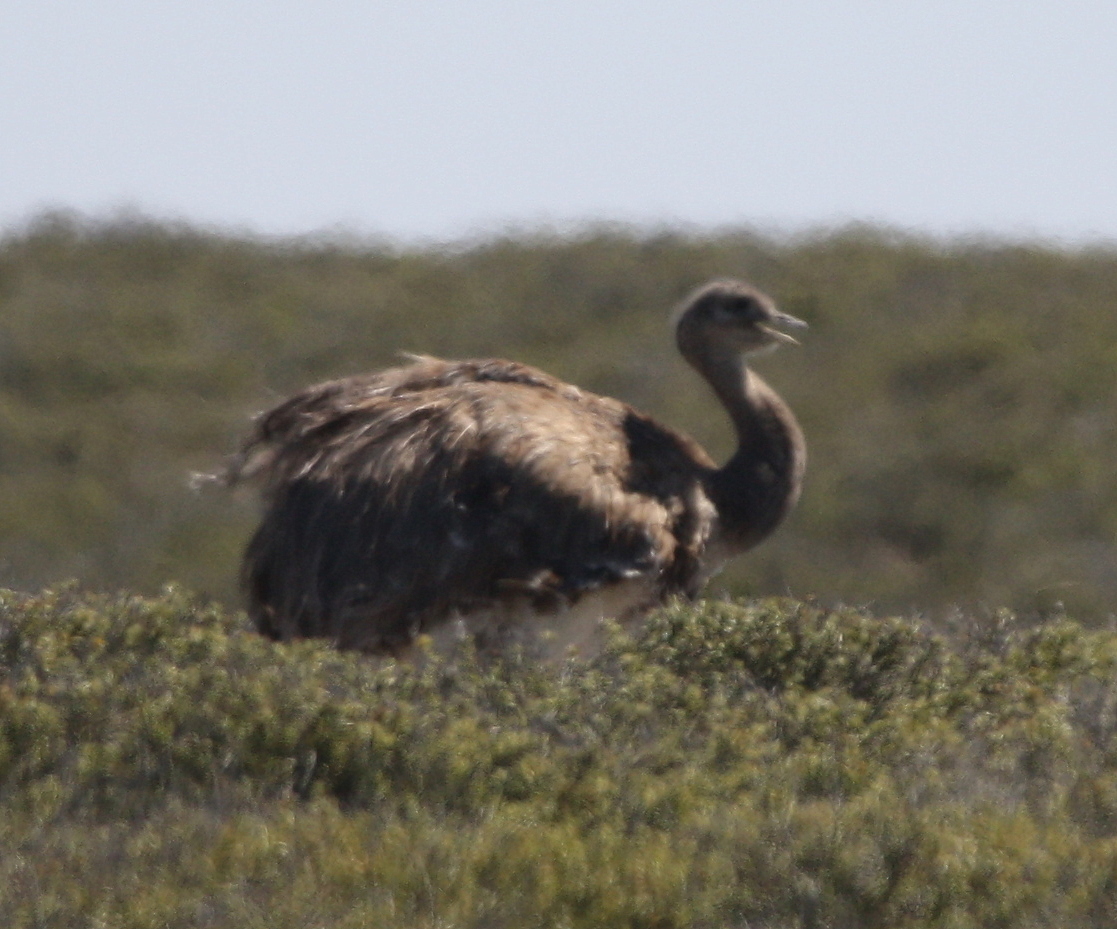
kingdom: Animalia
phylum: Chordata
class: Aves
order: Rheiformes
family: Rheidae
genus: Rhea
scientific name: Rhea pennata
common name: Lesser rhea
